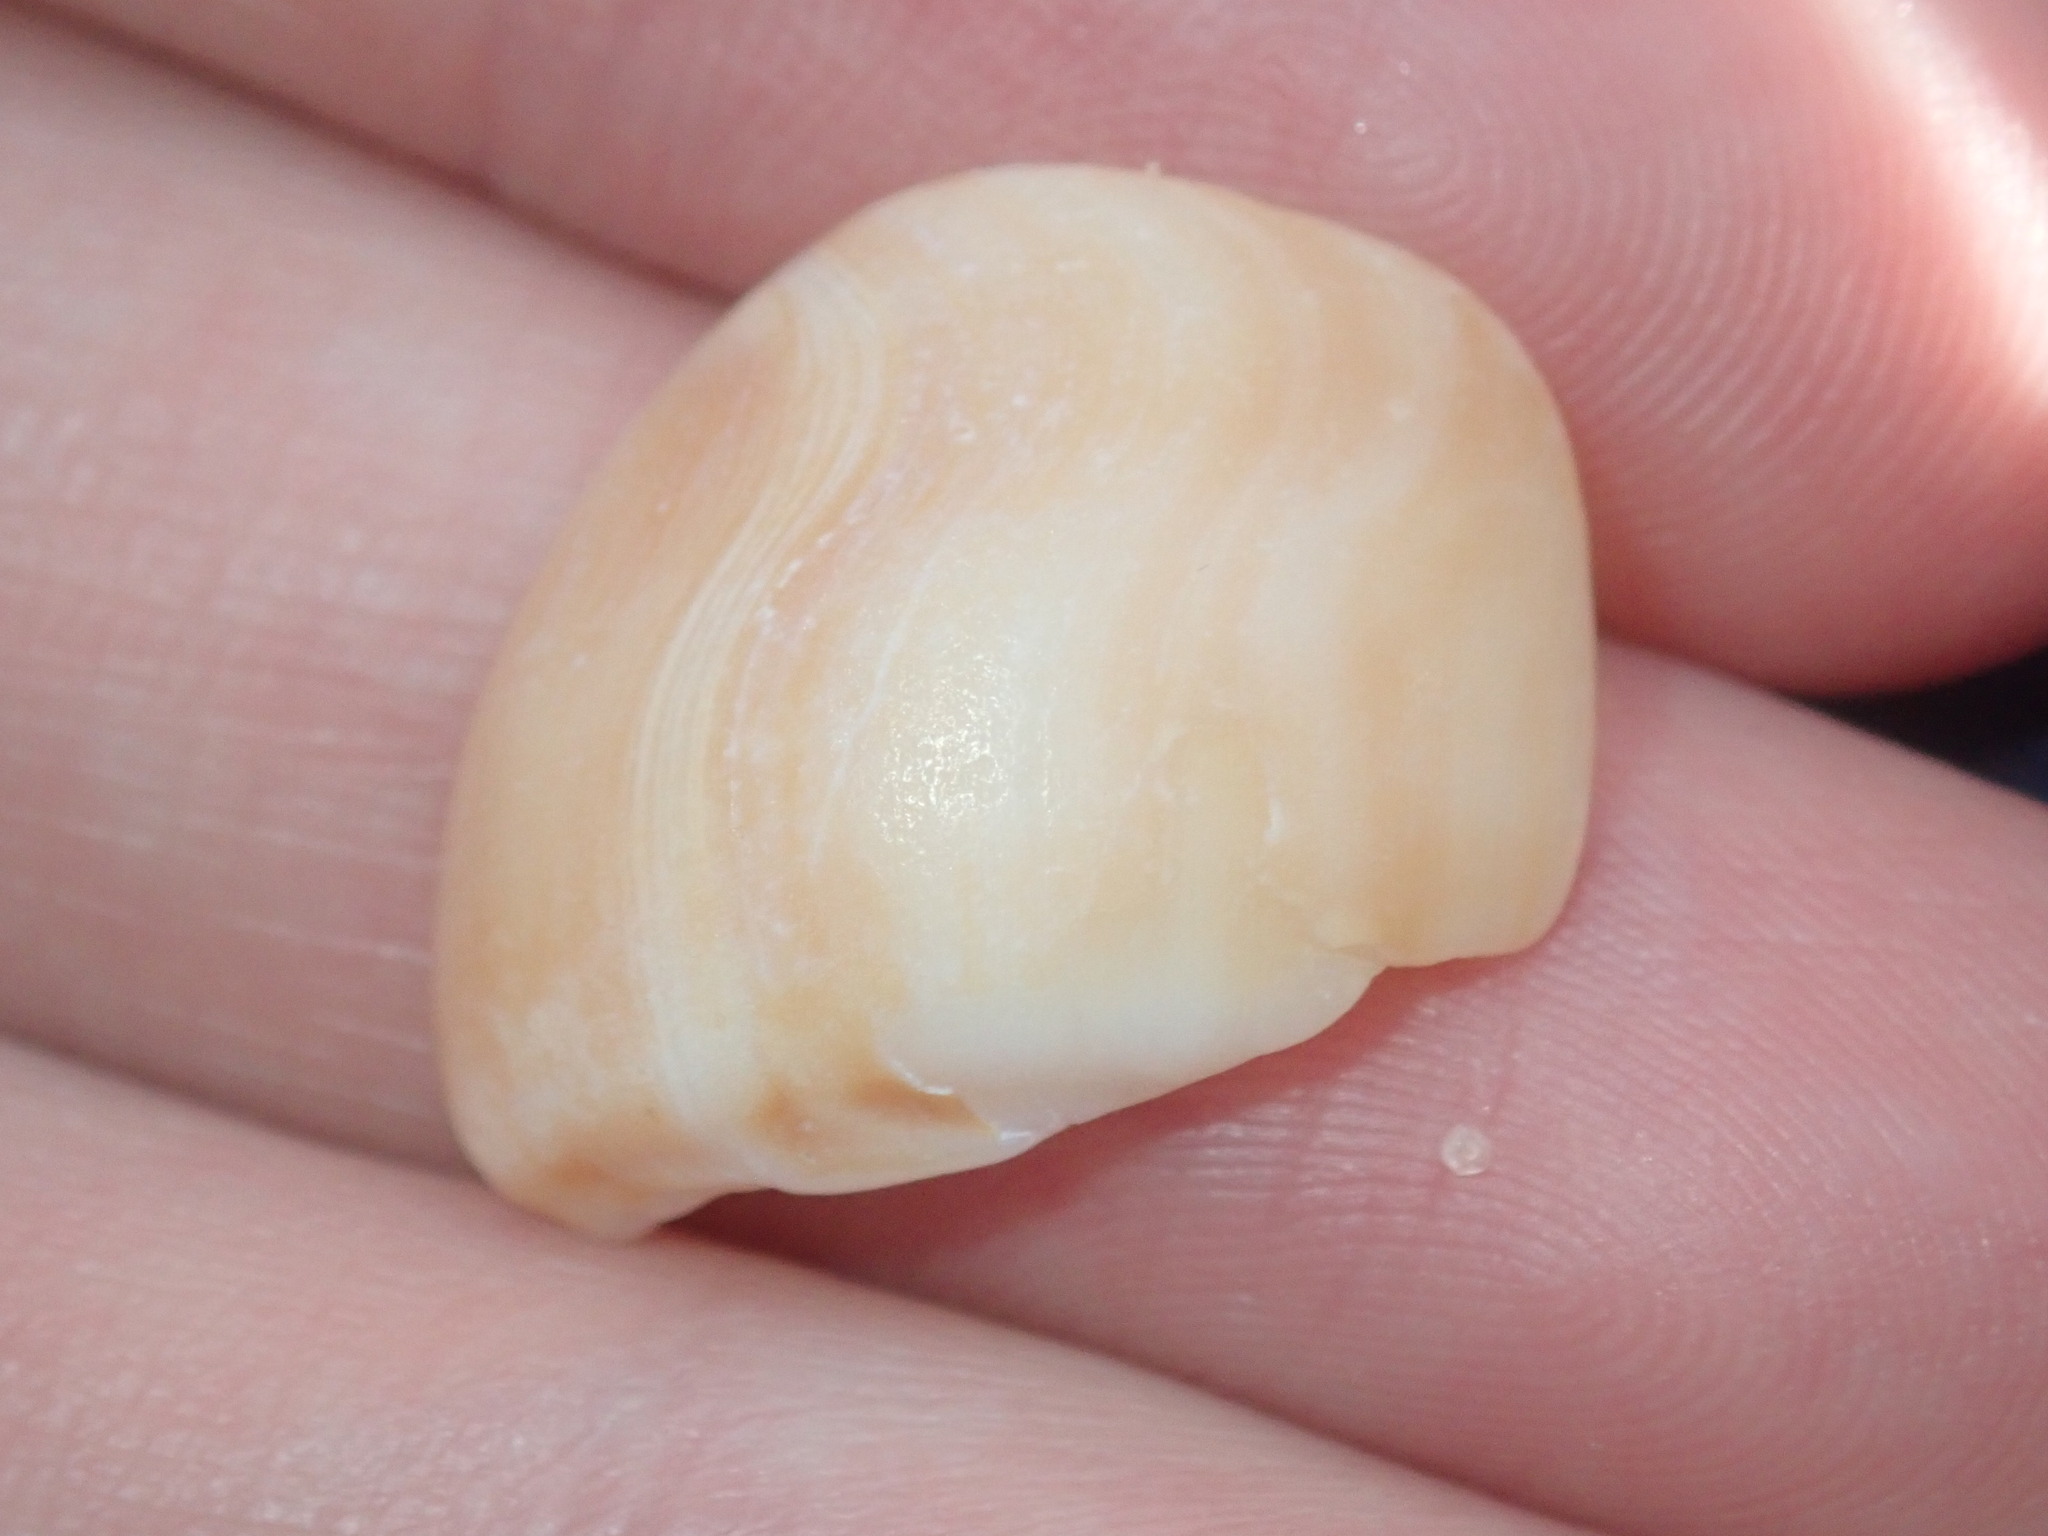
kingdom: Animalia
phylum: Mollusca
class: Gastropoda
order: Littorinimorpha
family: Struthiolariidae
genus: Tylospira
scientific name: Tylospira scutulata
